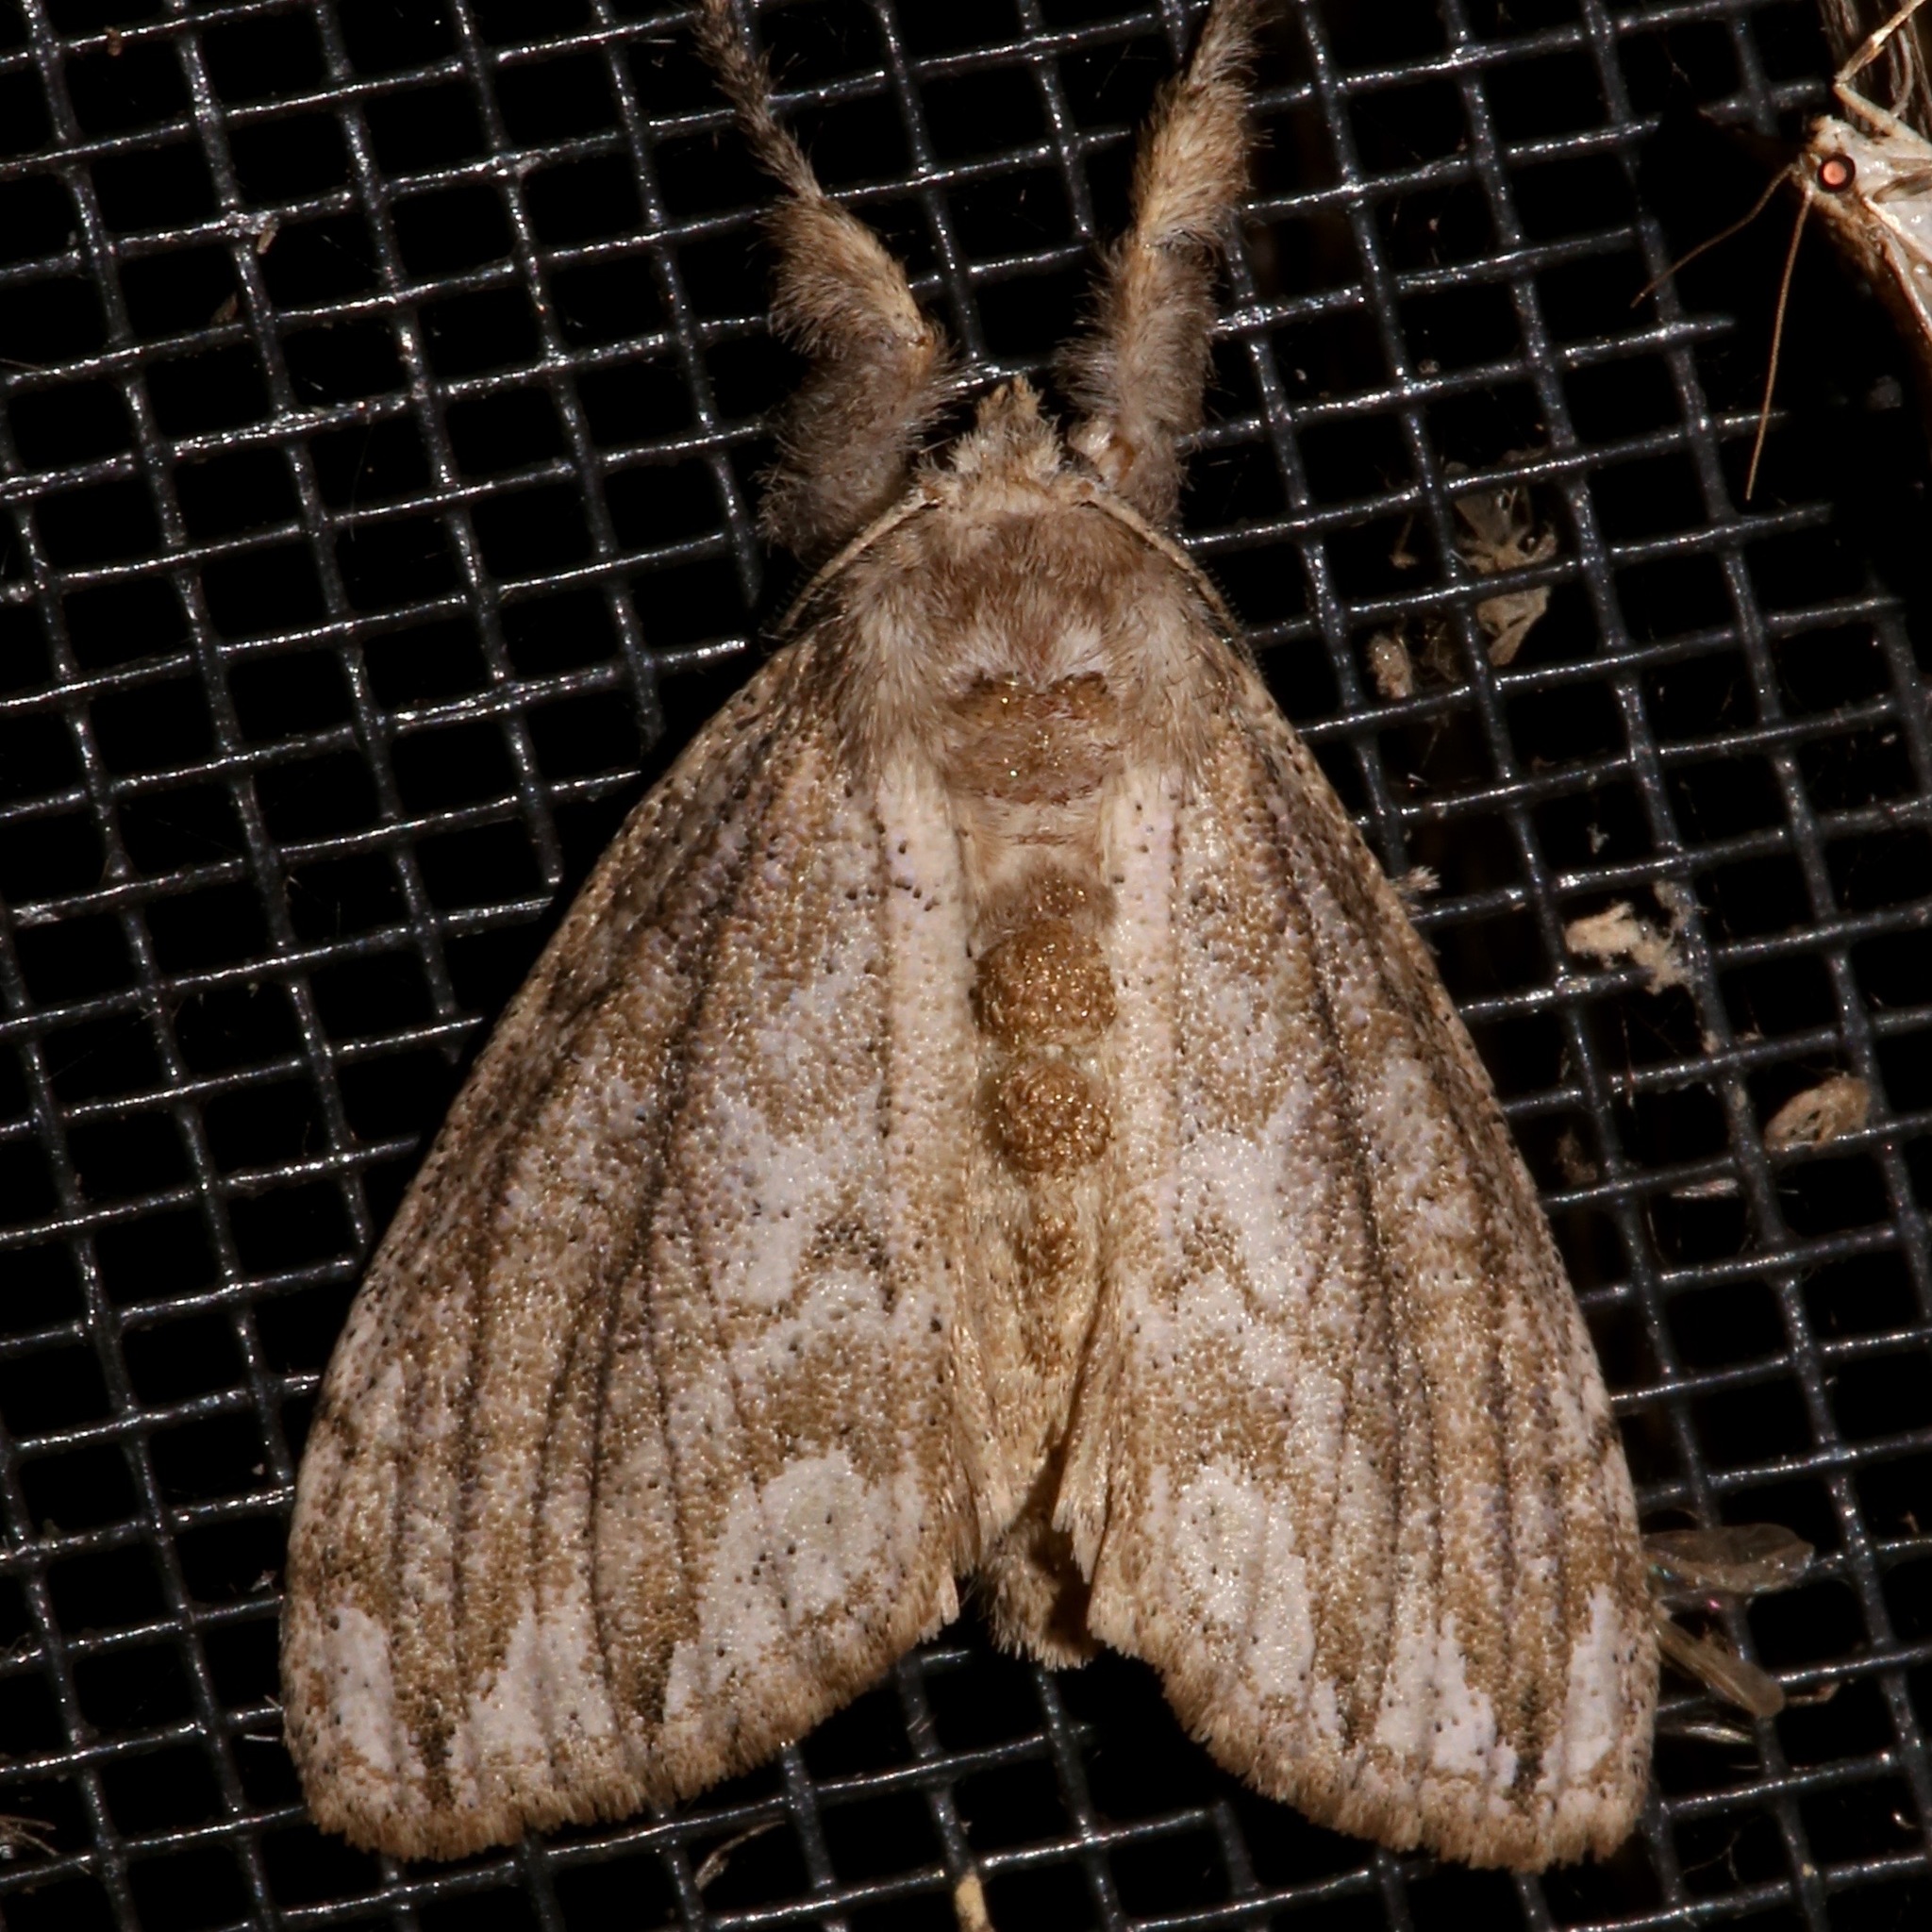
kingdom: Animalia
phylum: Arthropoda
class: Insecta
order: Lepidoptera
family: Erebidae
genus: Dasychira
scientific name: Dasychira atrivenosa
